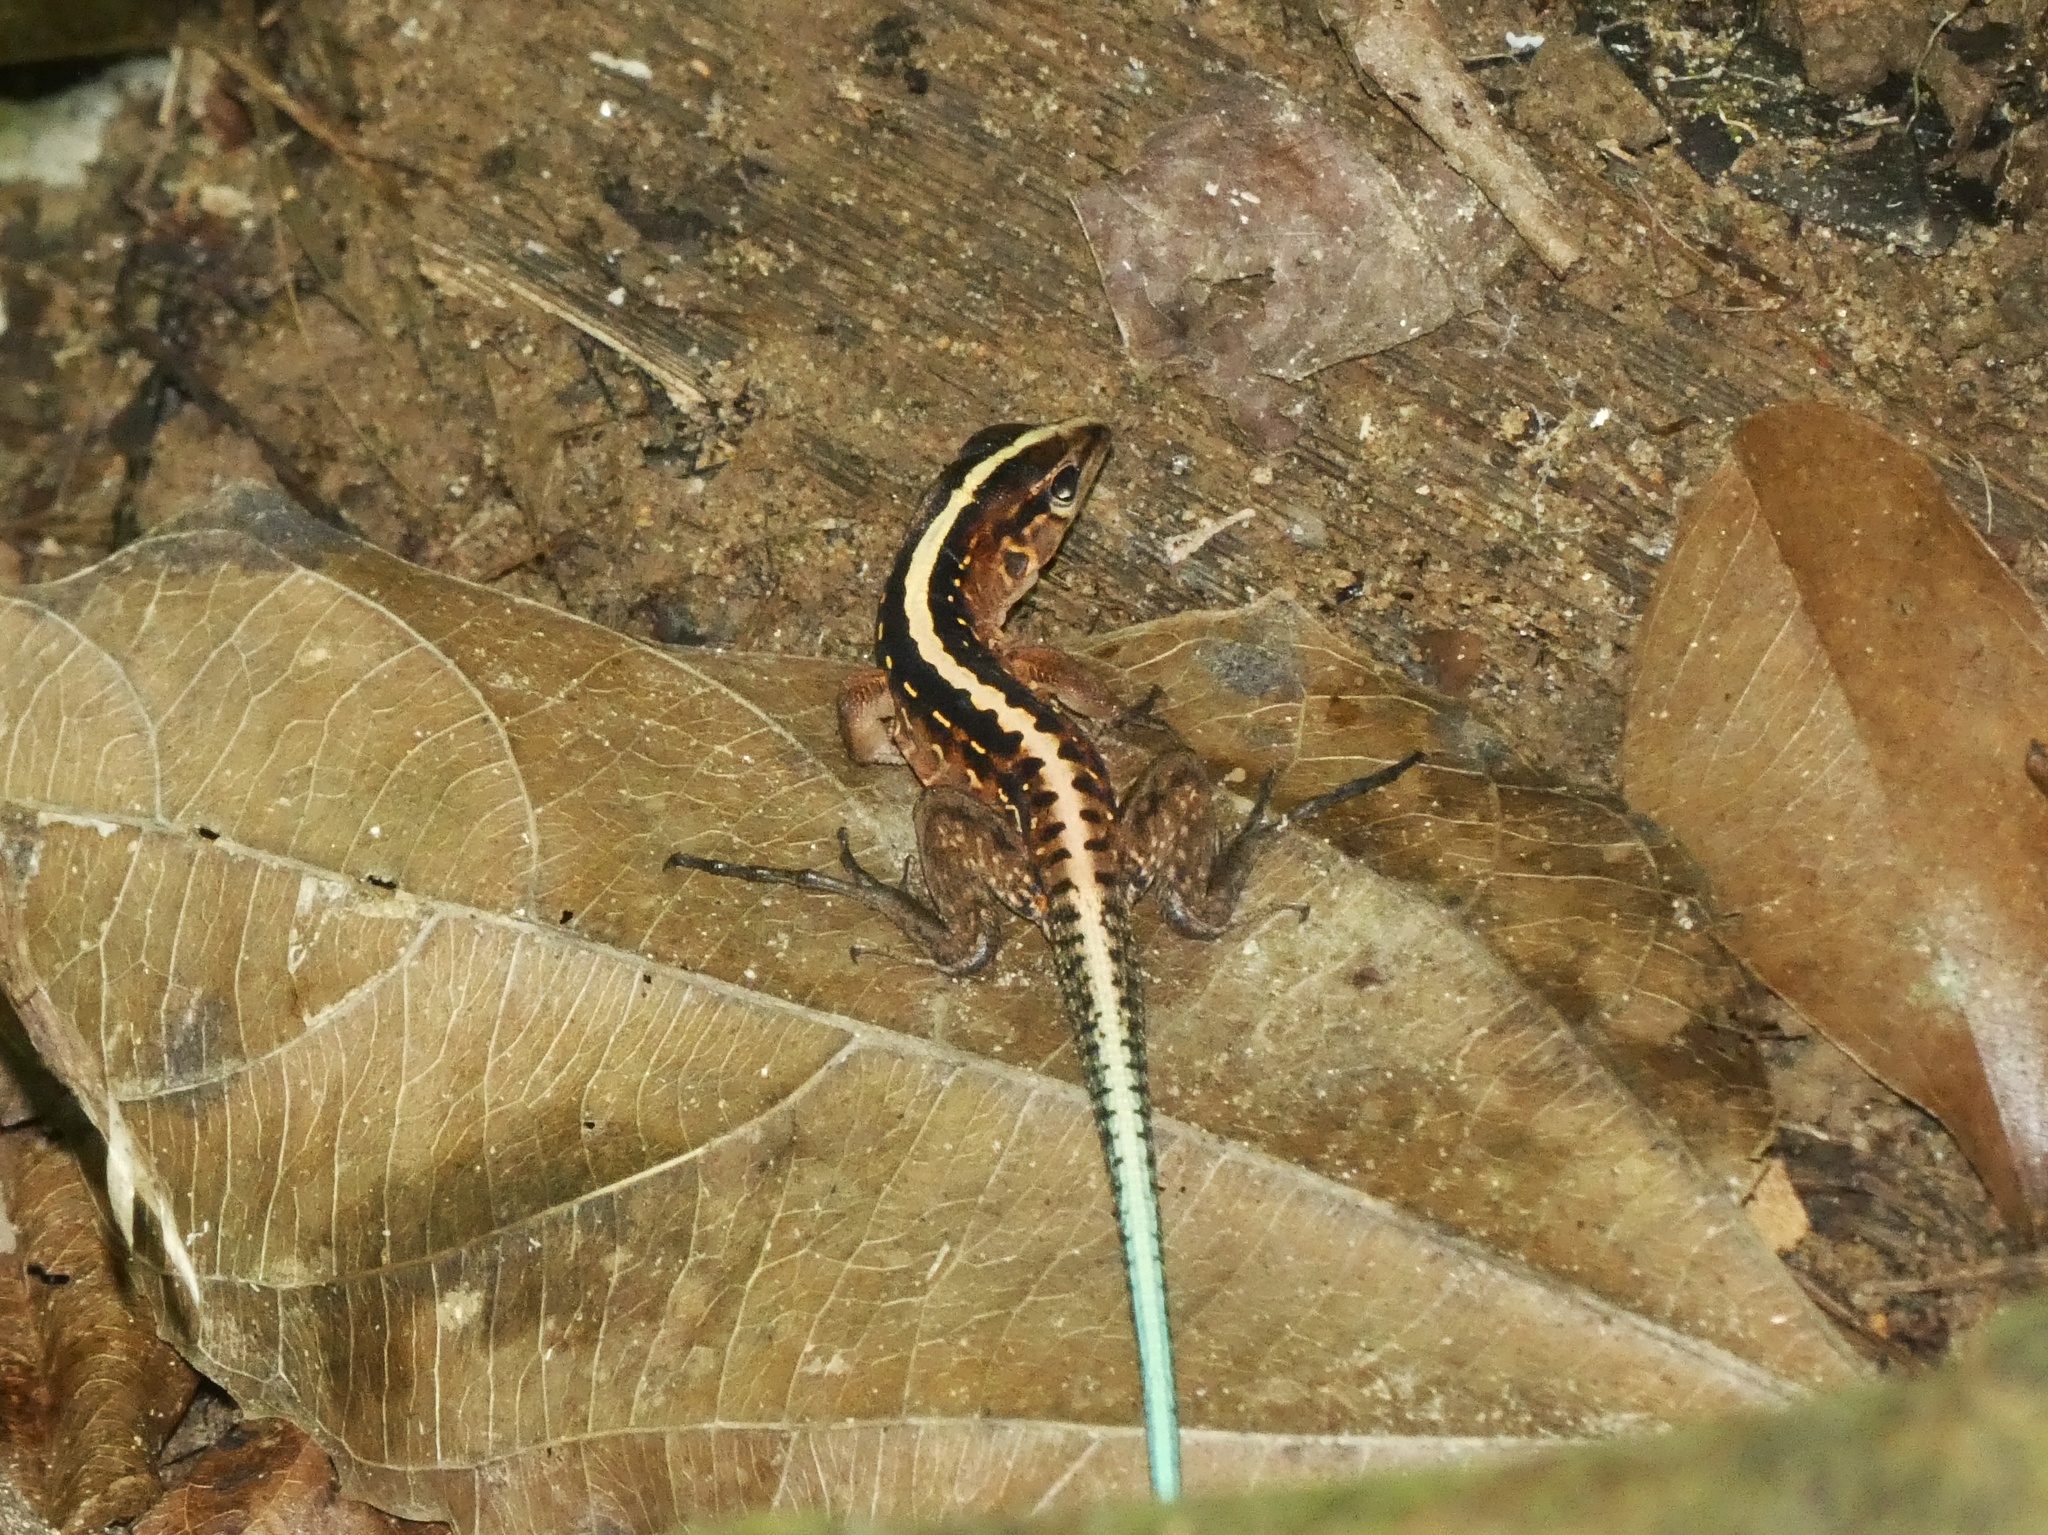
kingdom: Animalia
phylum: Chordata
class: Squamata
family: Teiidae
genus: Holcosus
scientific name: Holcosus festivus
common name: Middle american ameiva
